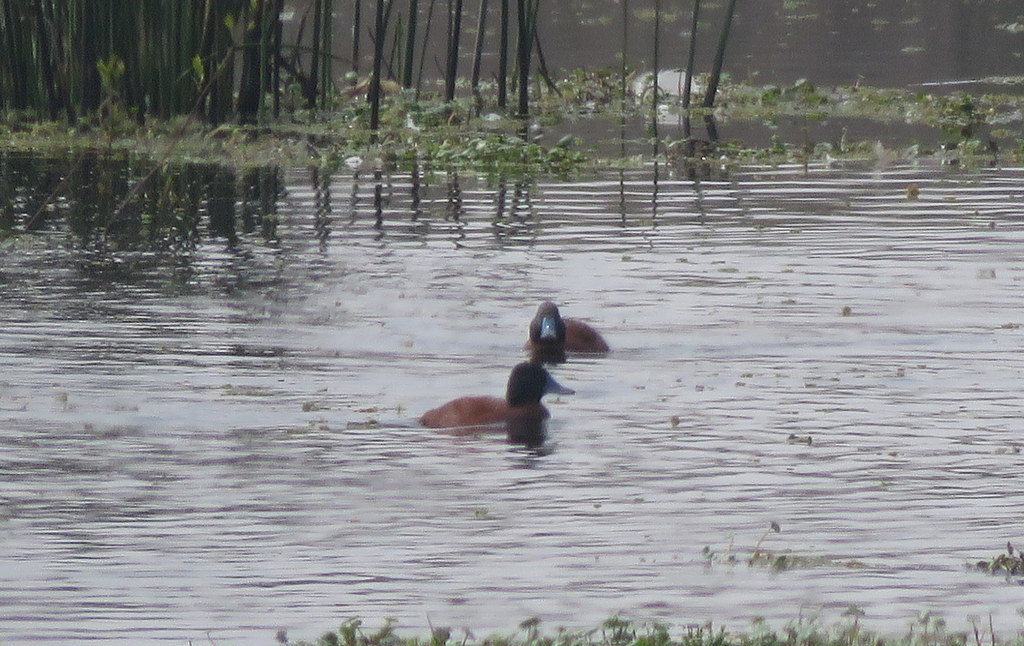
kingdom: Animalia
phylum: Chordata
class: Aves
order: Anseriformes
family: Anatidae
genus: Oxyura
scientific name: Oxyura vittata
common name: Lake duck
